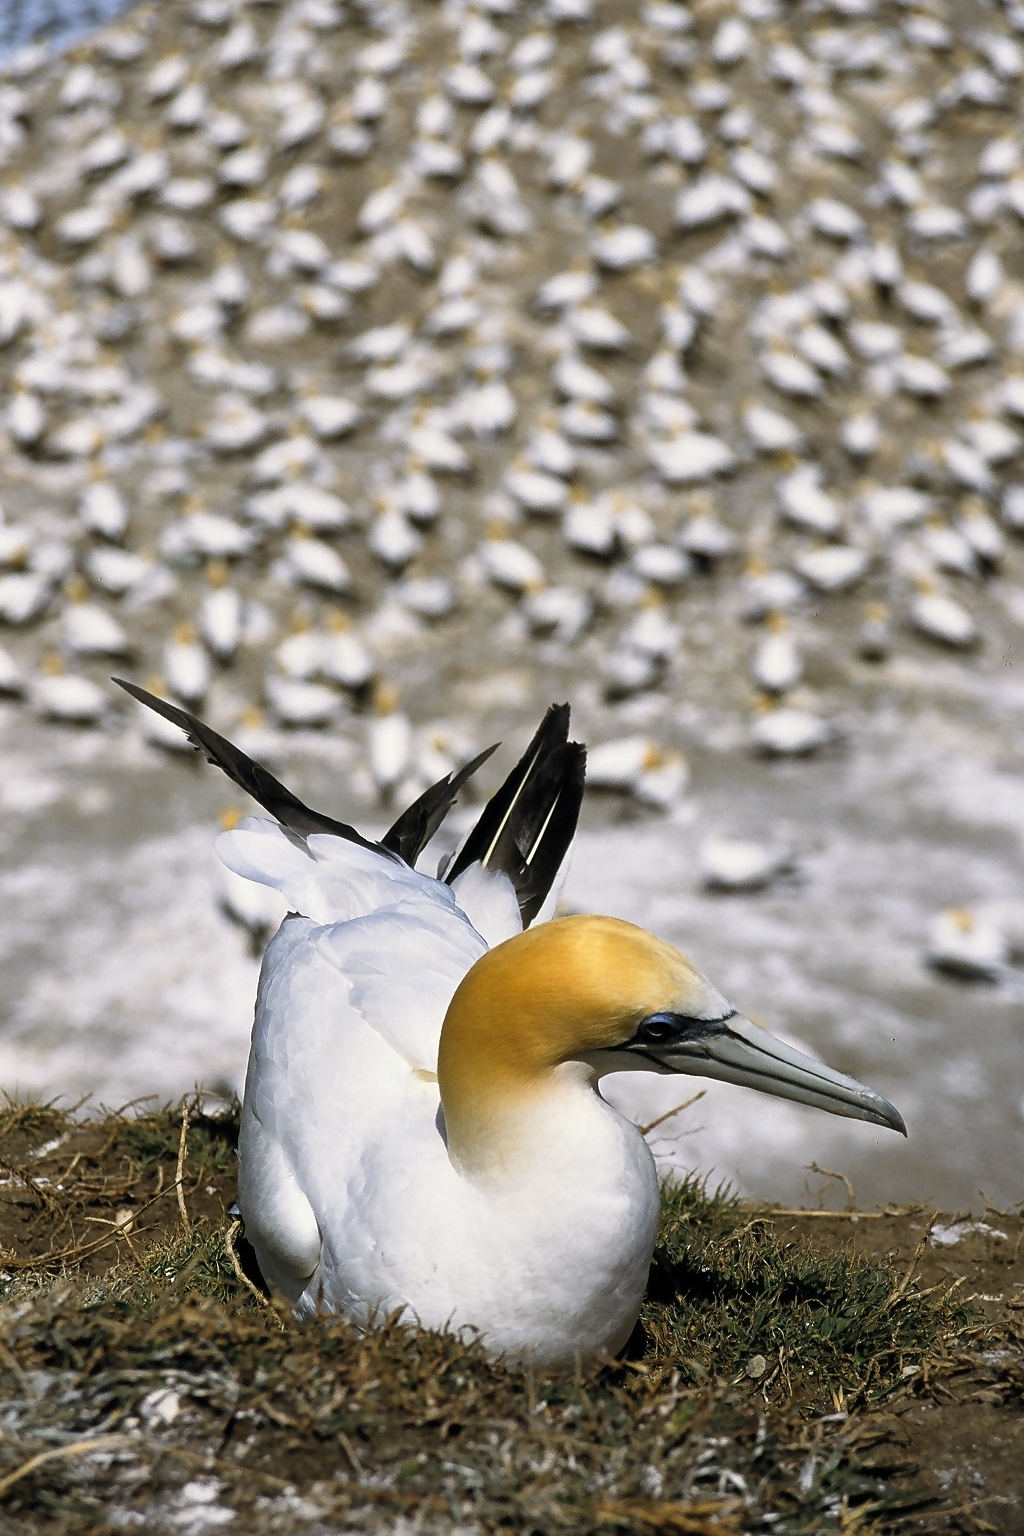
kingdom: Animalia
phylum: Chordata
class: Aves
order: Suliformes
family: Sulidae
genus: Morus
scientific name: Morus serrator
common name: Australasian gannet
